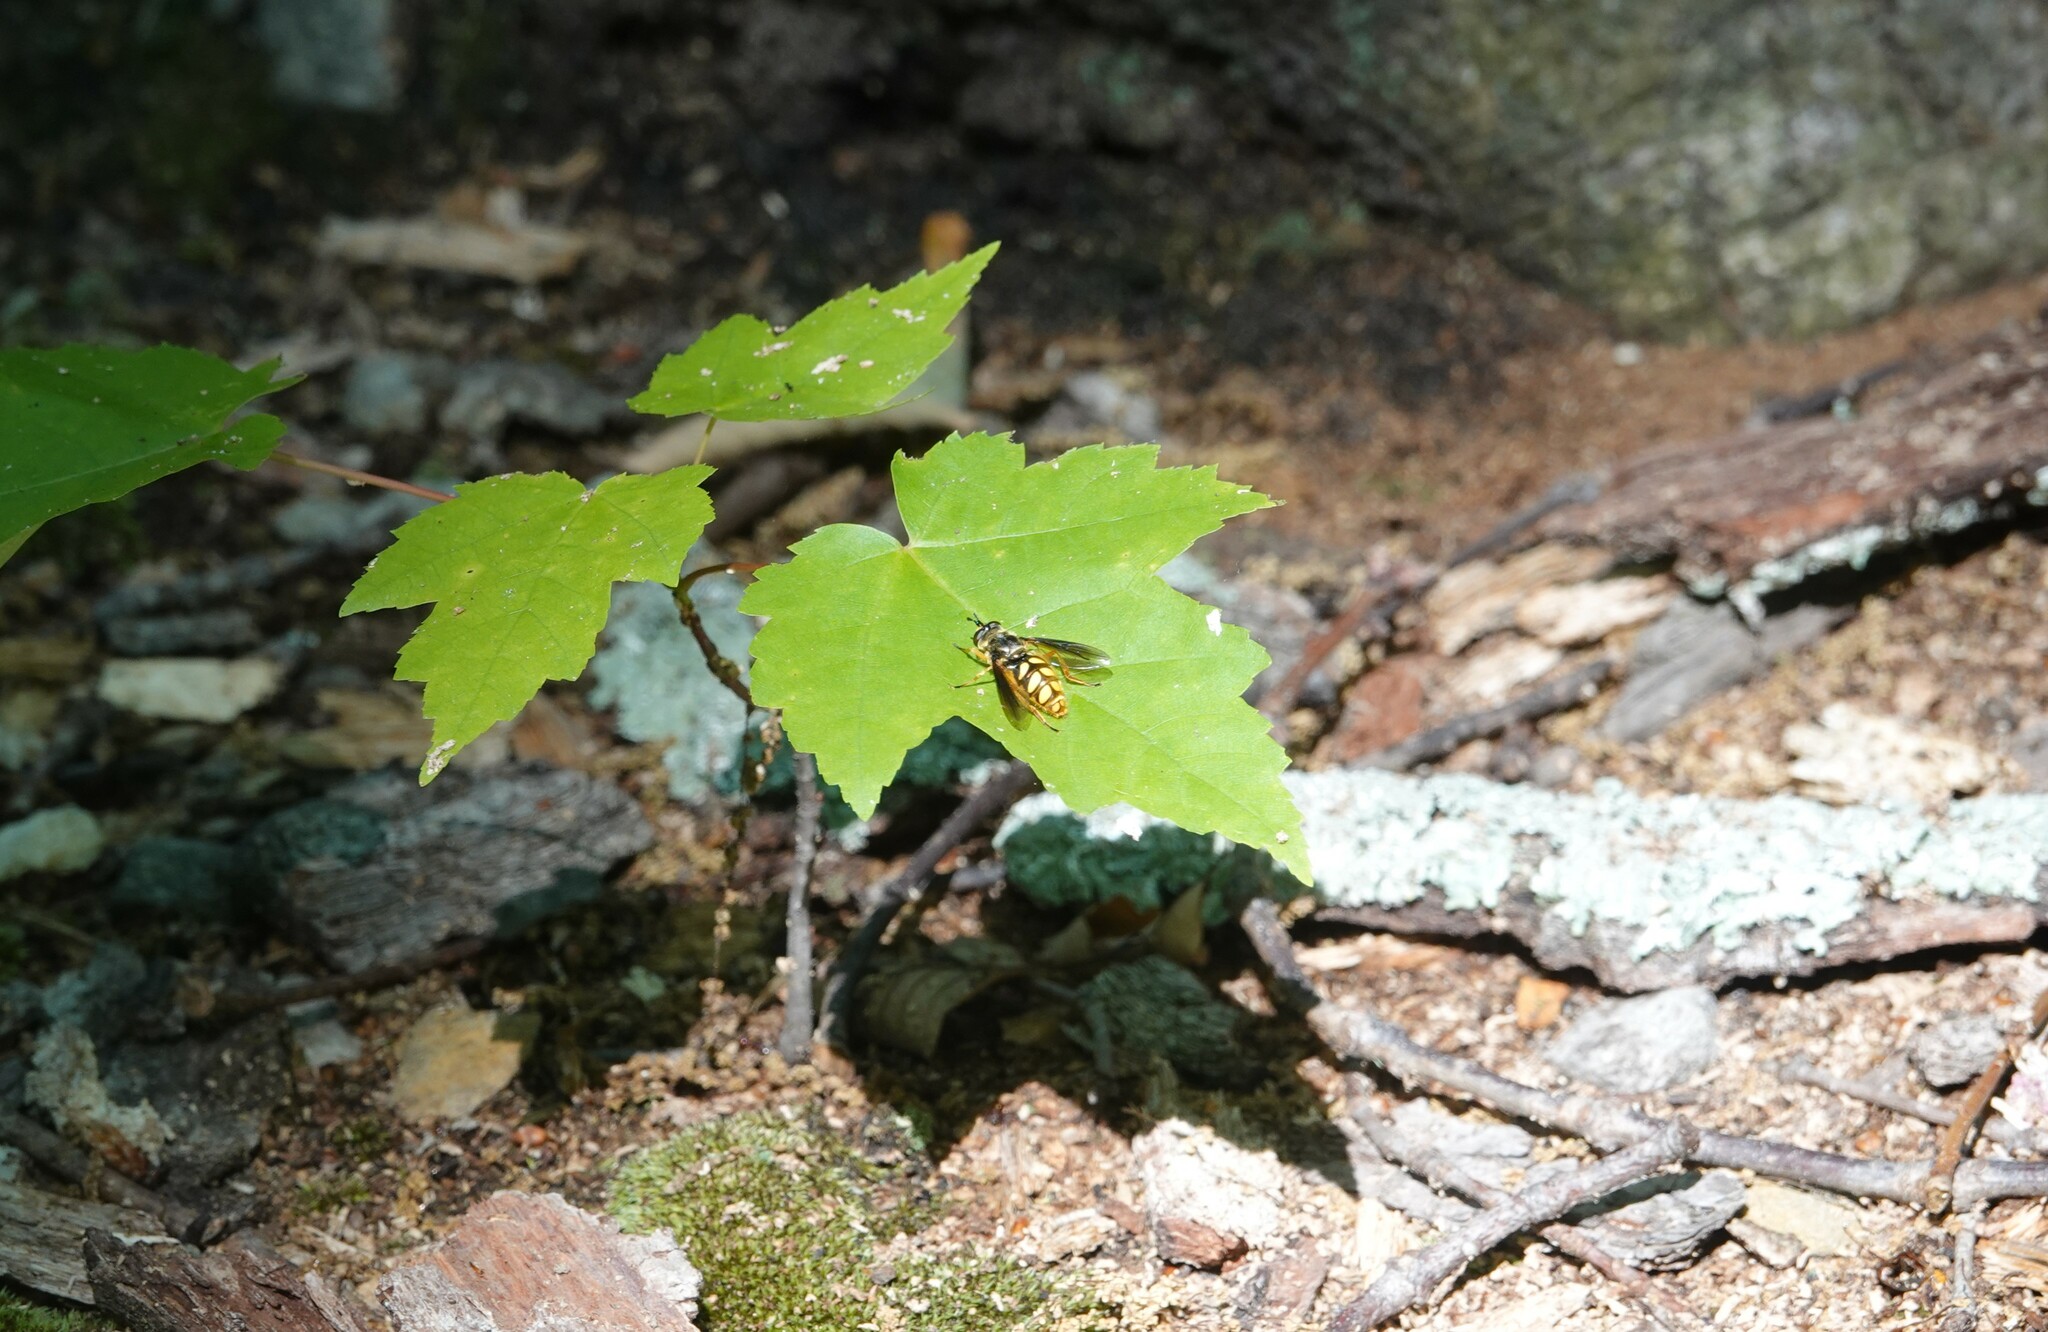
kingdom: Animalia
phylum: Arthropoda
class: Insecta
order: Diptera
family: Syrphidae
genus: Somula
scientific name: Somula decora
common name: Spotted wood fly
